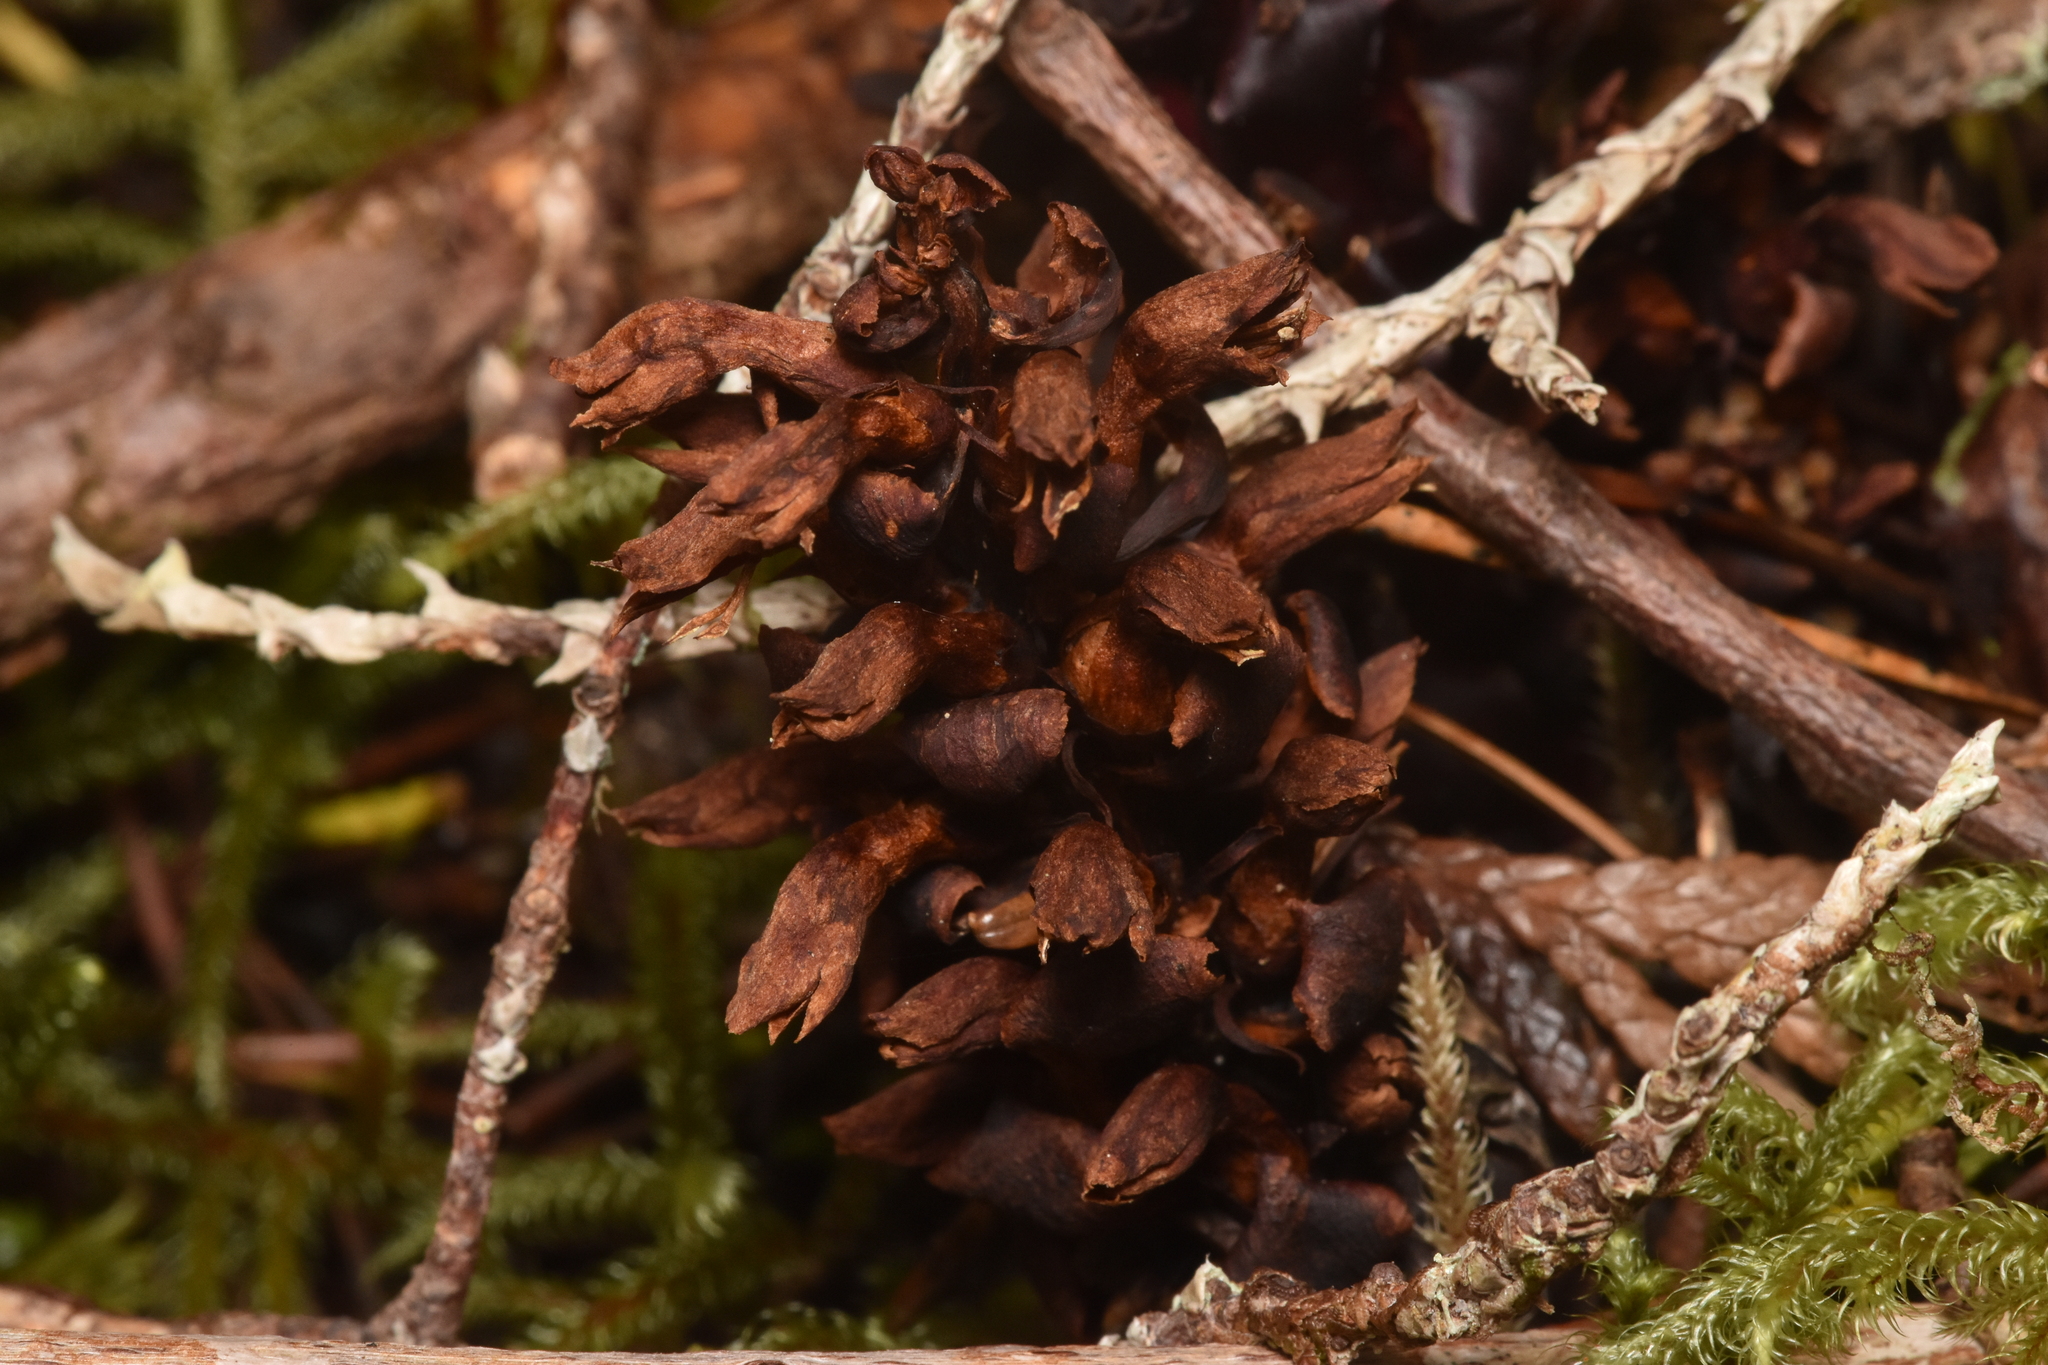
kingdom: Plantae
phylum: Tracheophyta
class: Magnoliopsida
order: Lamiales
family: Orobanchaceae
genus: Kopsiopsis
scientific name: Kopsiopsis hookeri
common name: Hooker's groundcone
